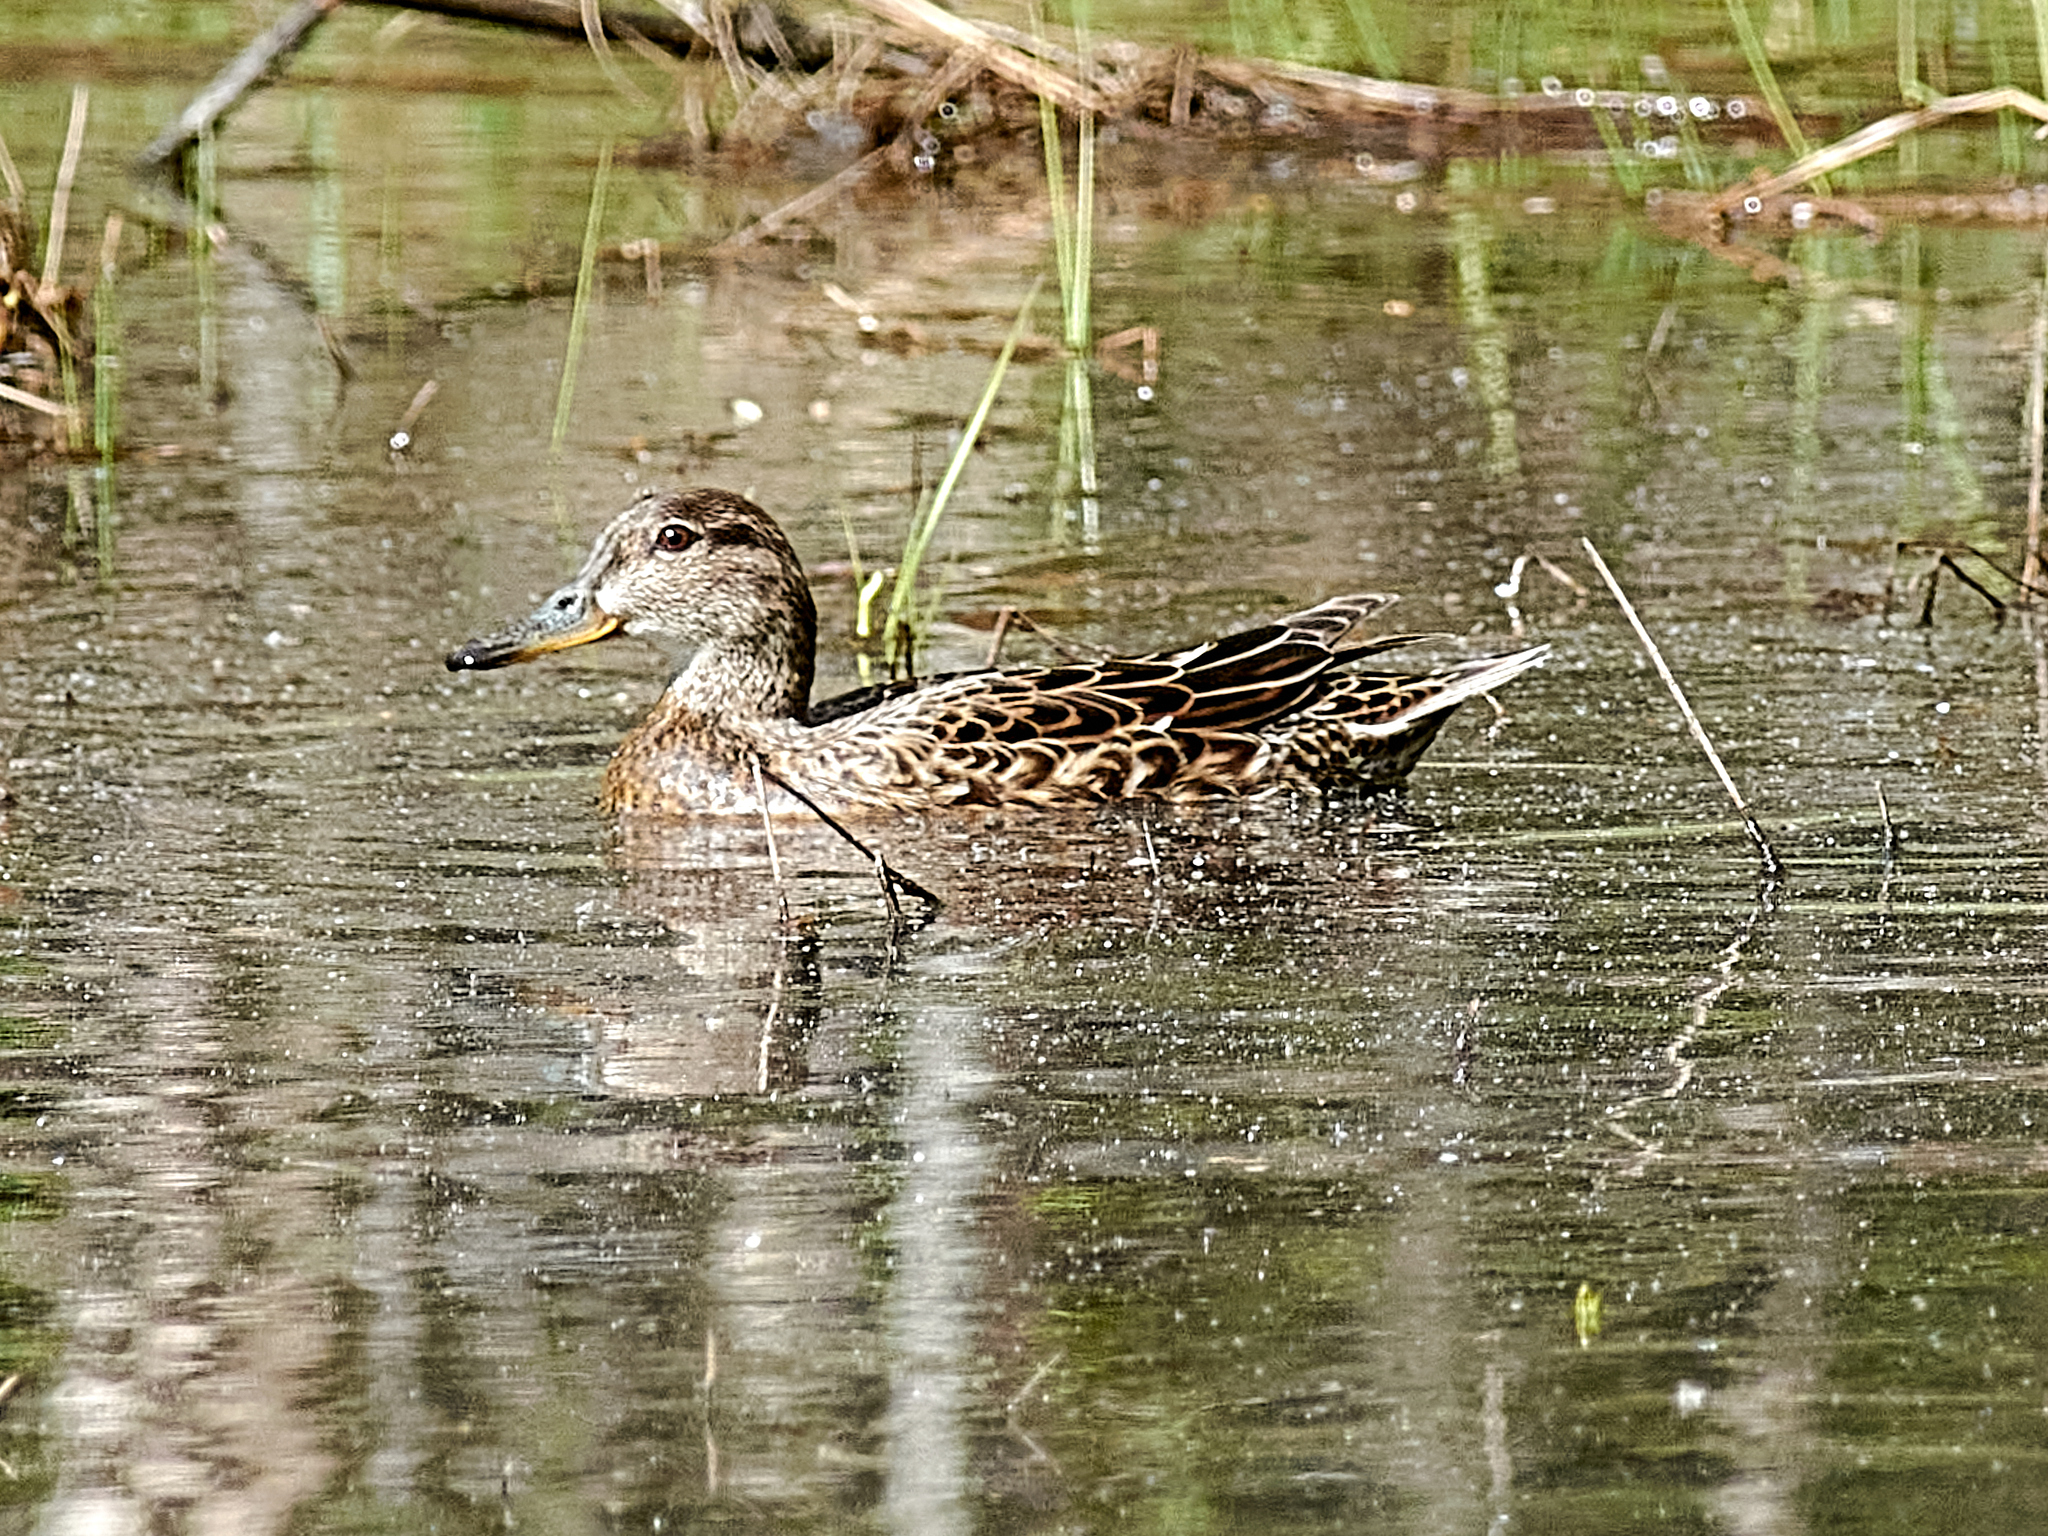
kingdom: Animalia
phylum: Chordata
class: Aves
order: Anseriformes
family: Anatidae
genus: Anas
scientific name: Anas crecca
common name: Eurasian teal
